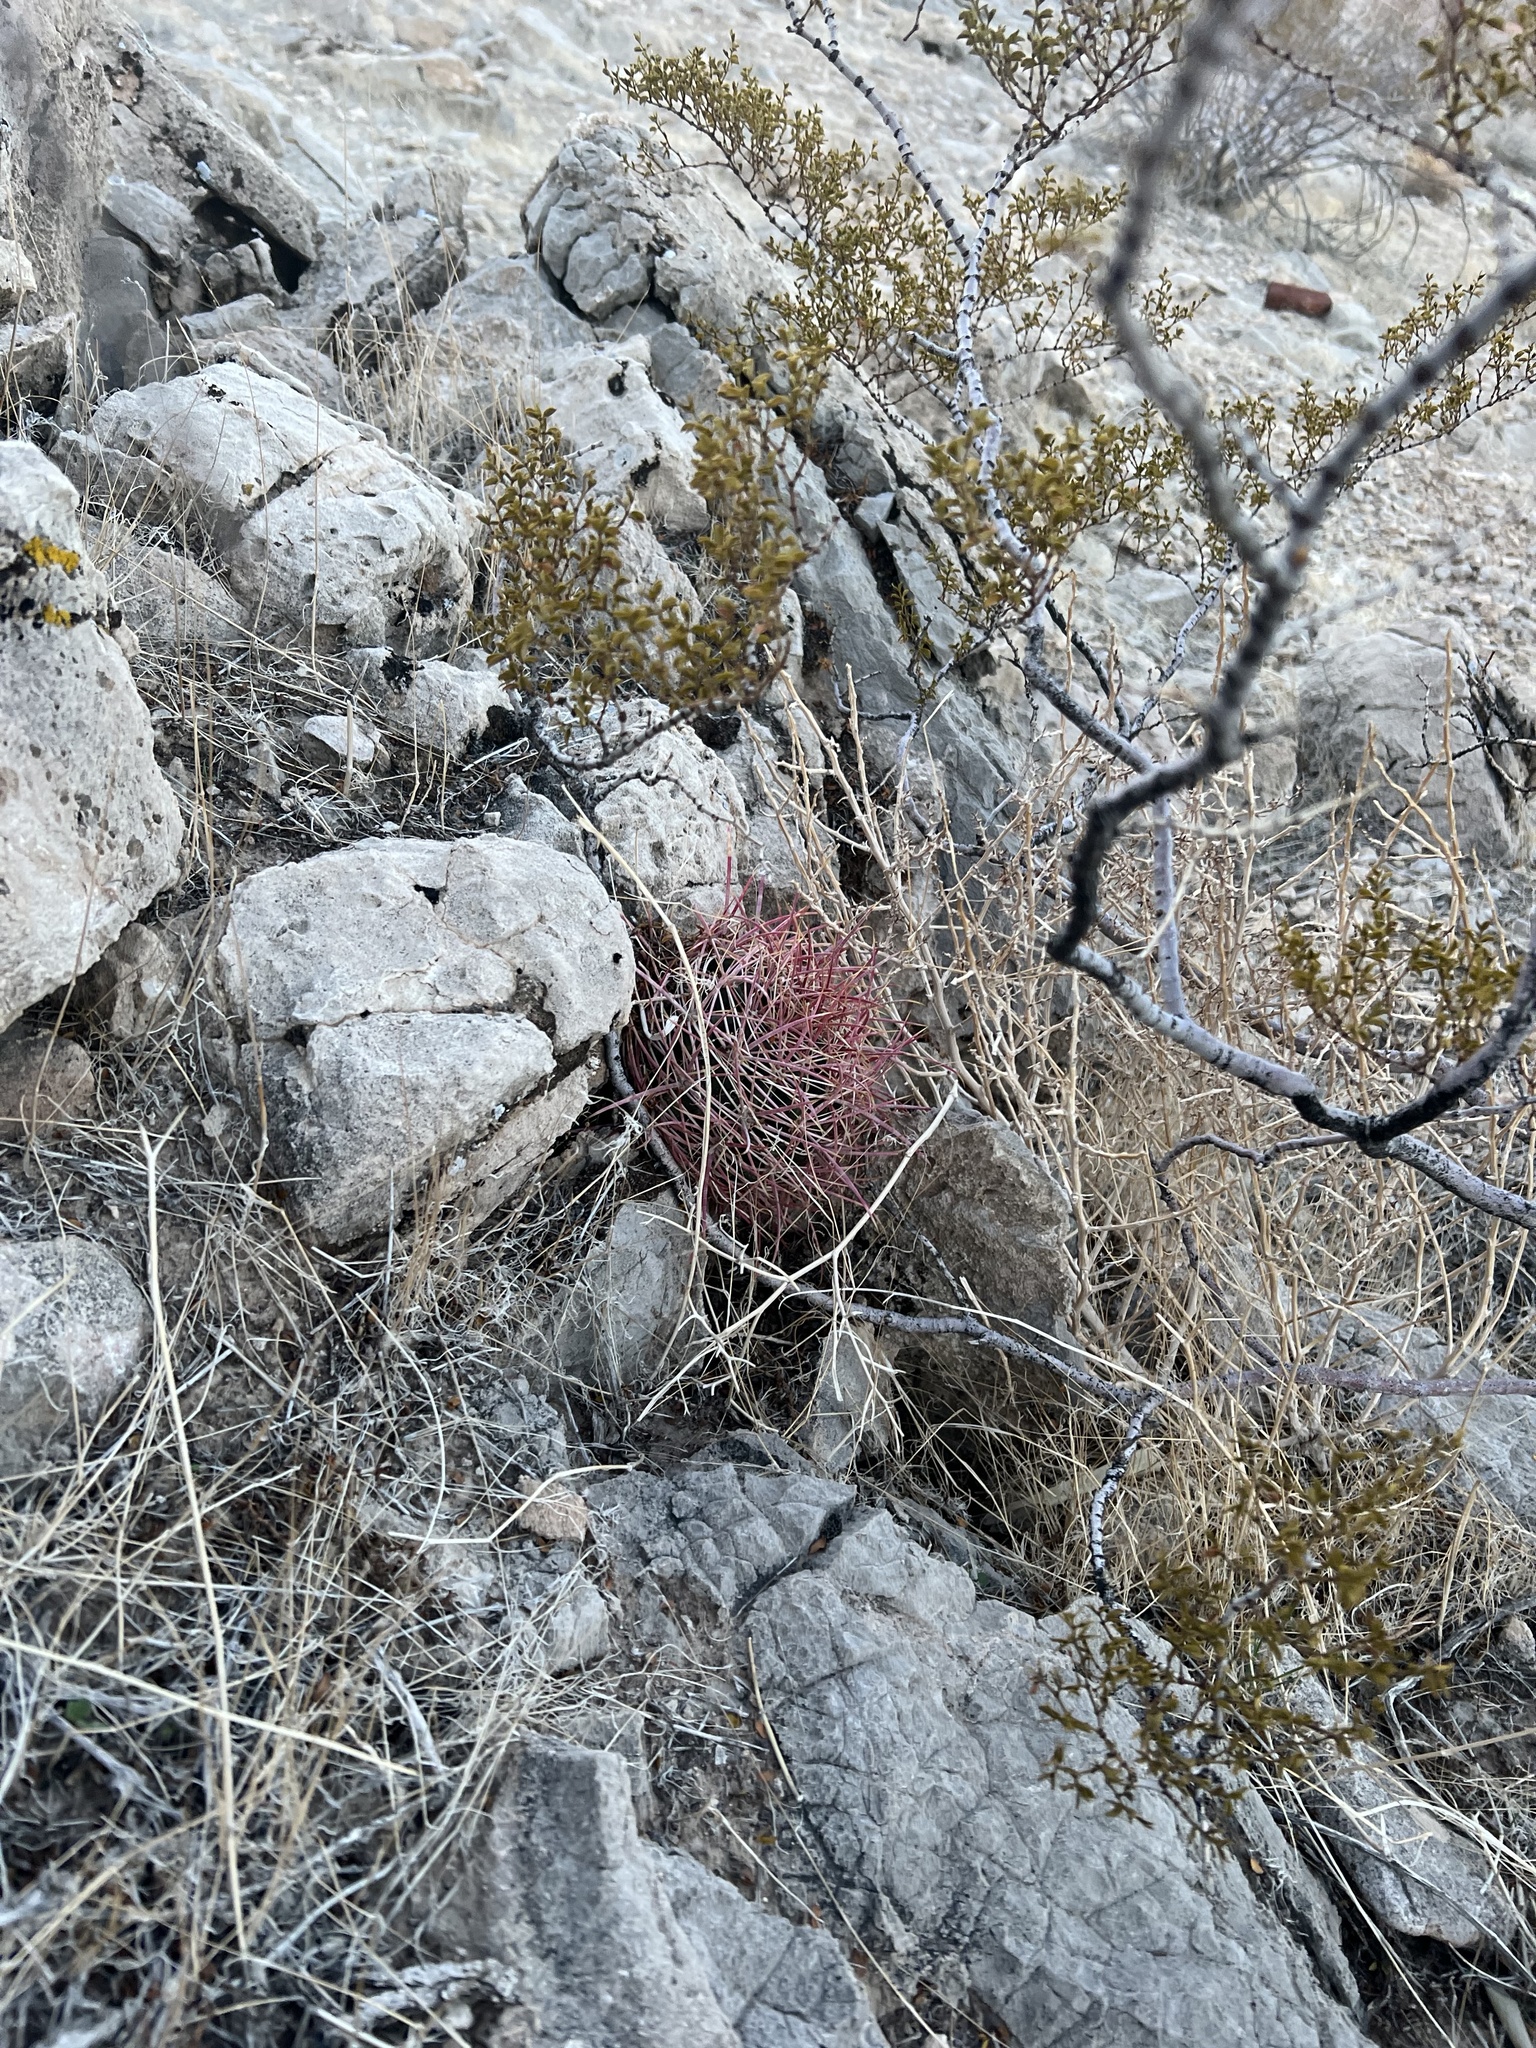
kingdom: Plantae
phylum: Tracheophyta
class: Magnoliopsida
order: Caryophyllales
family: Cactaceae
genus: Ferocactus
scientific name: Ferocactus cylindraceus
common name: California barrel cactus
